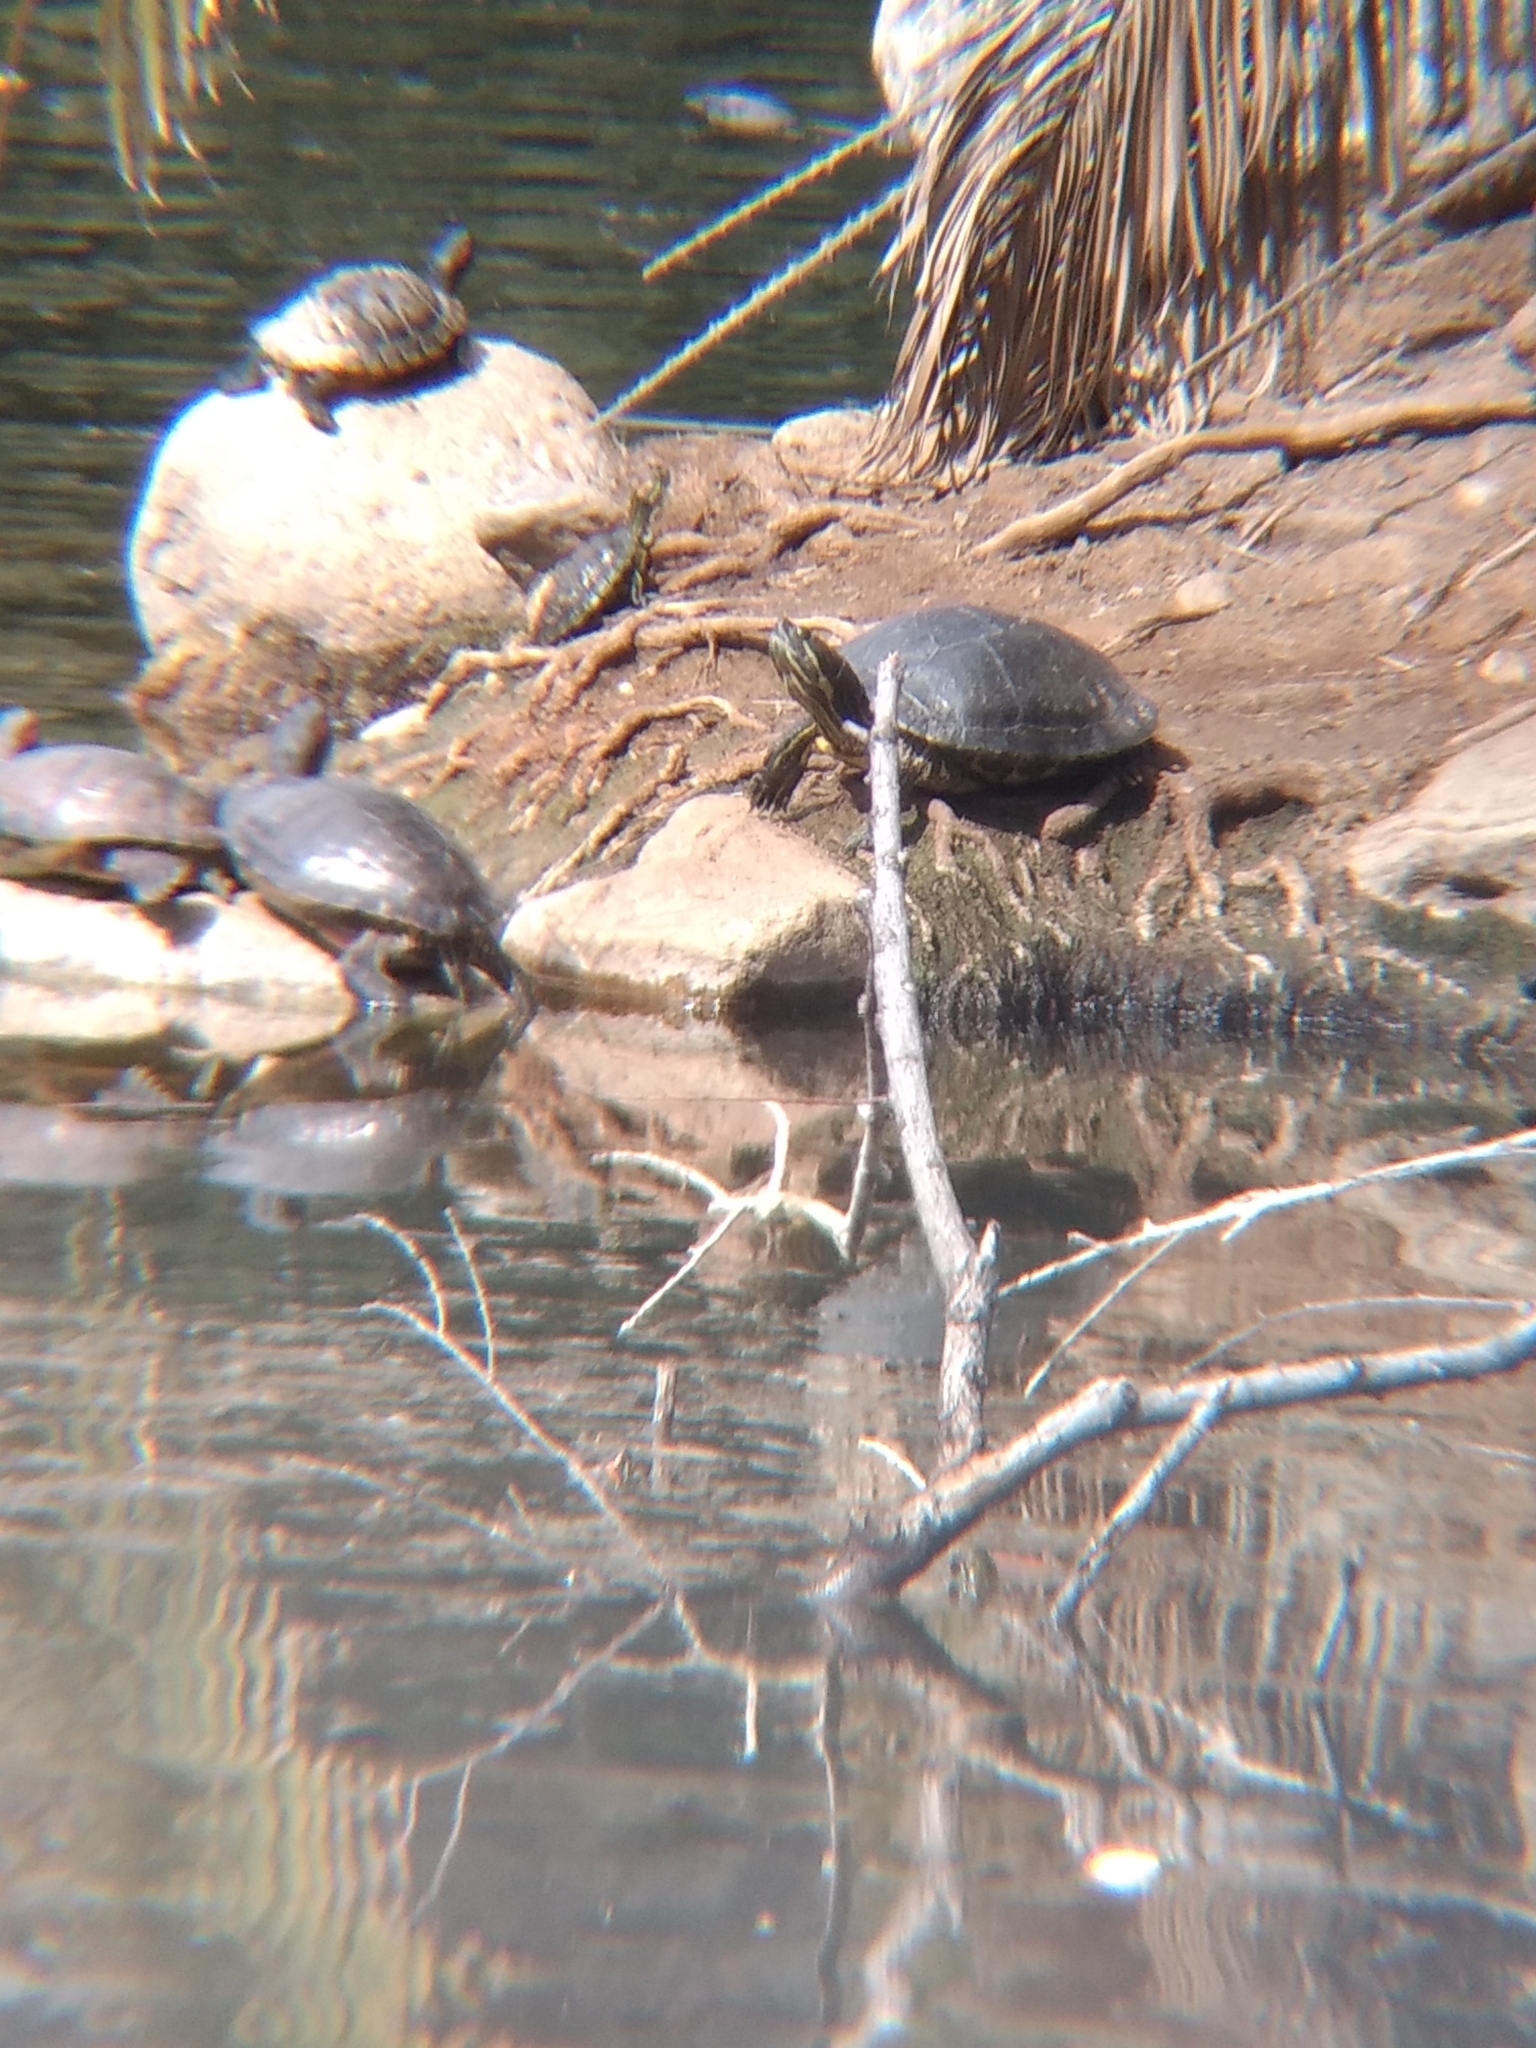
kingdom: Animalia
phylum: Chordata
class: Testudines
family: Emydidae
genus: Trachemys
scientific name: Trachemys scripta
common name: Slider
